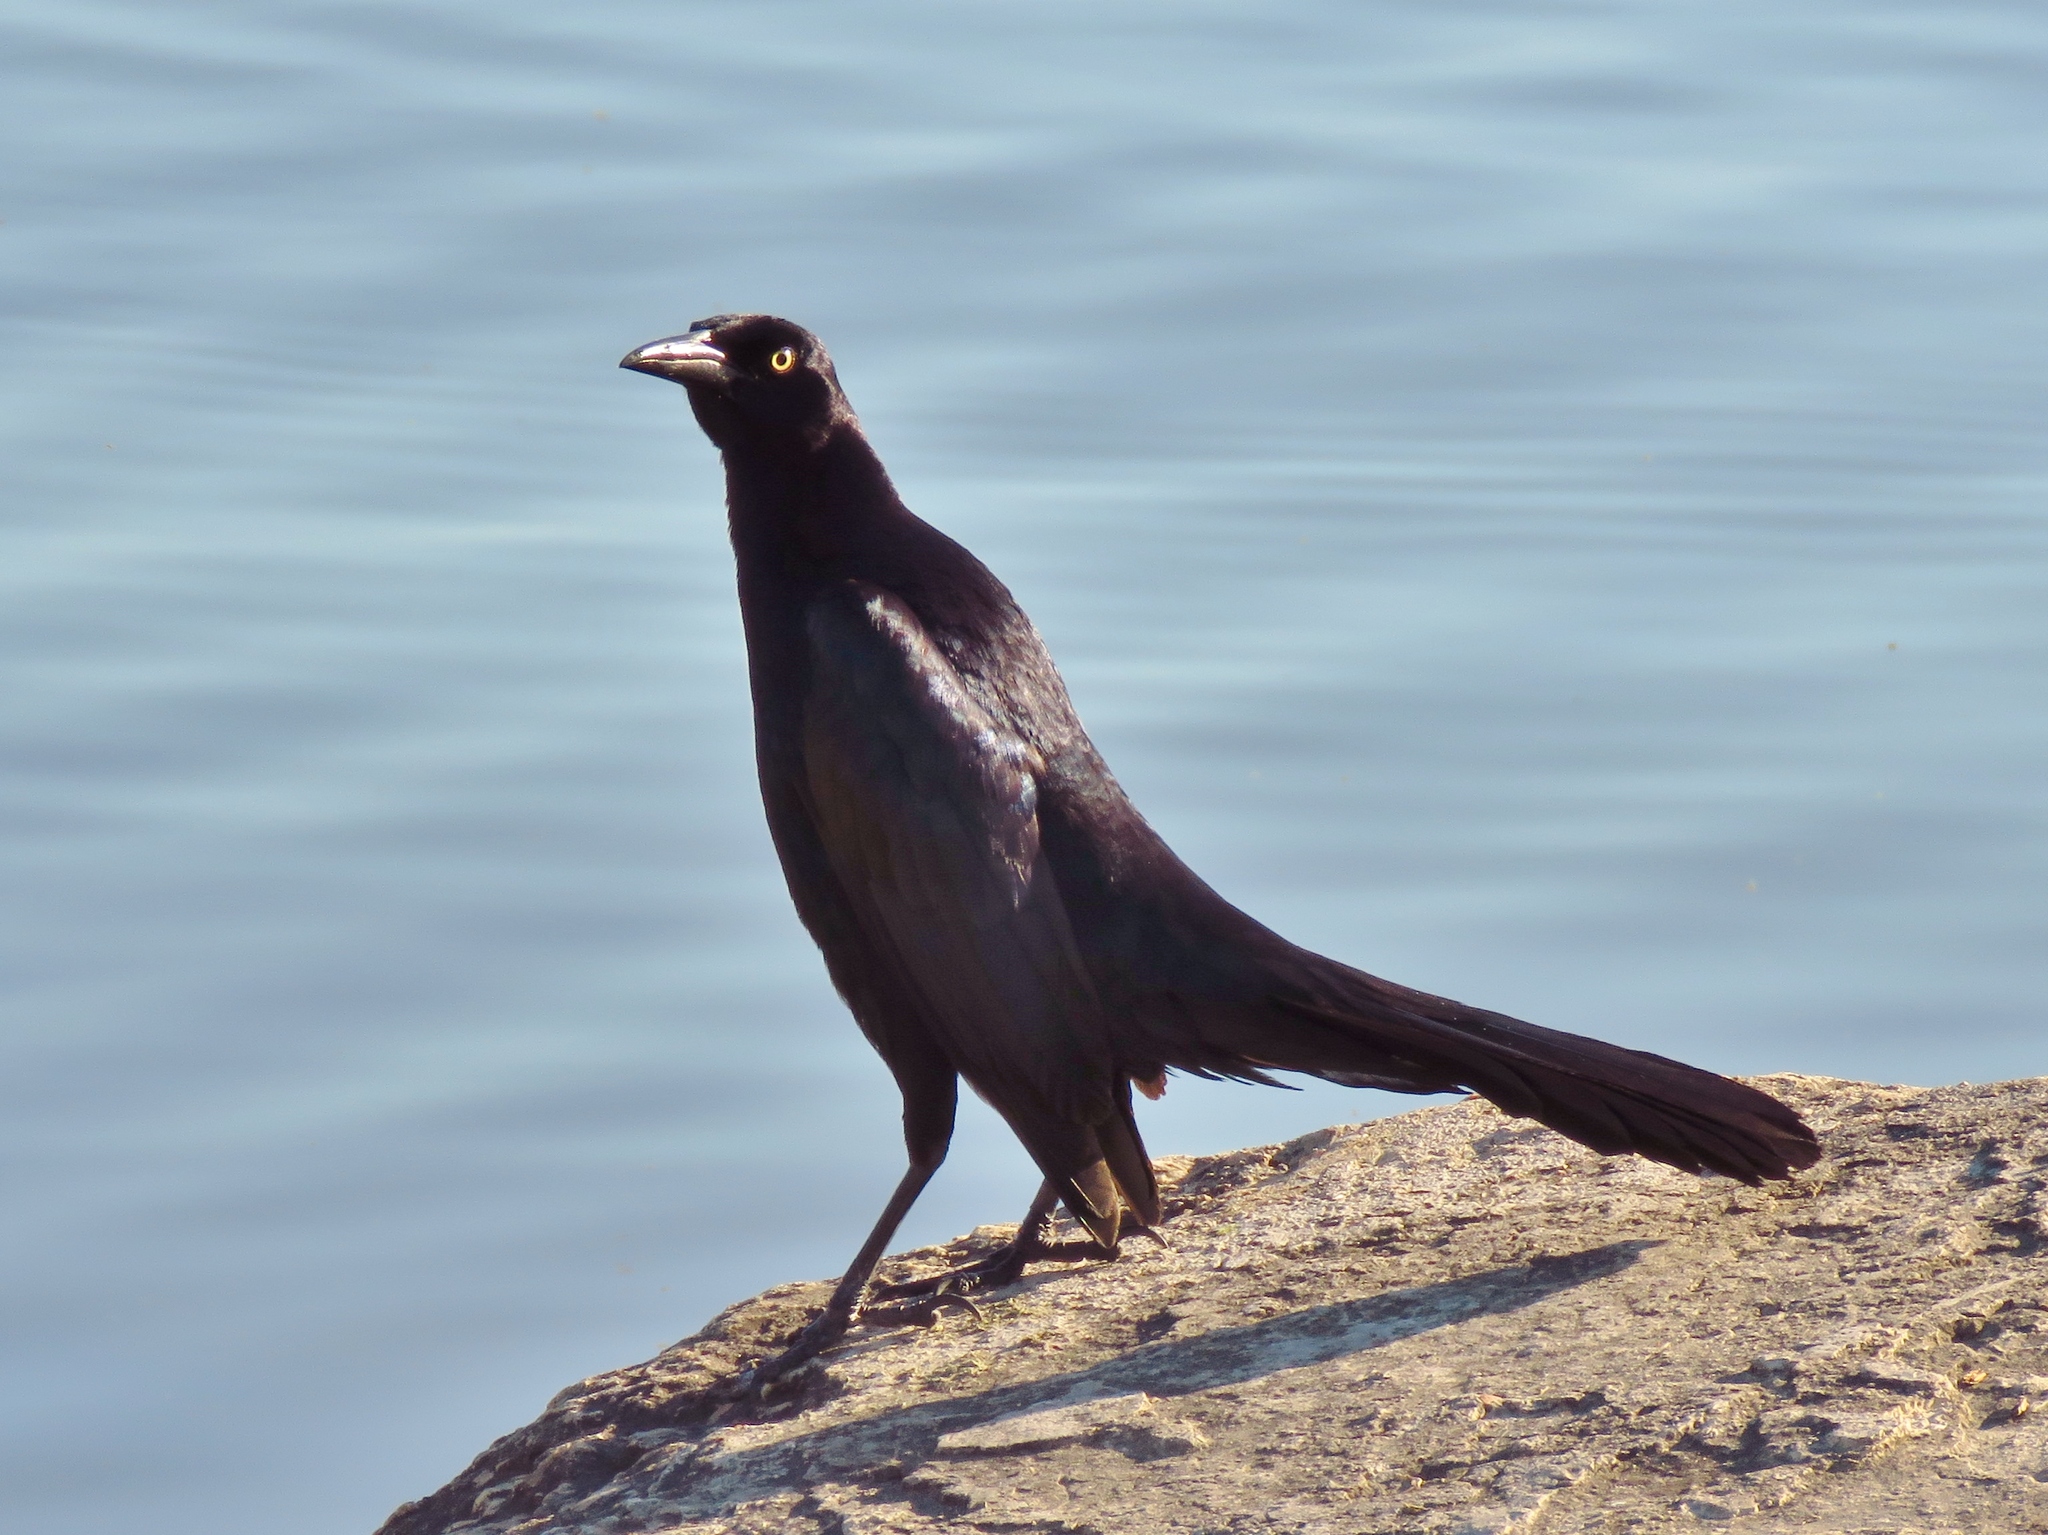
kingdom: Animalia
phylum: Chordata
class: Aves
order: Passeriformes
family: Icteridae
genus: Quiscalus
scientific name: Quiscalus mexicanus
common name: Great-tailed grackle
